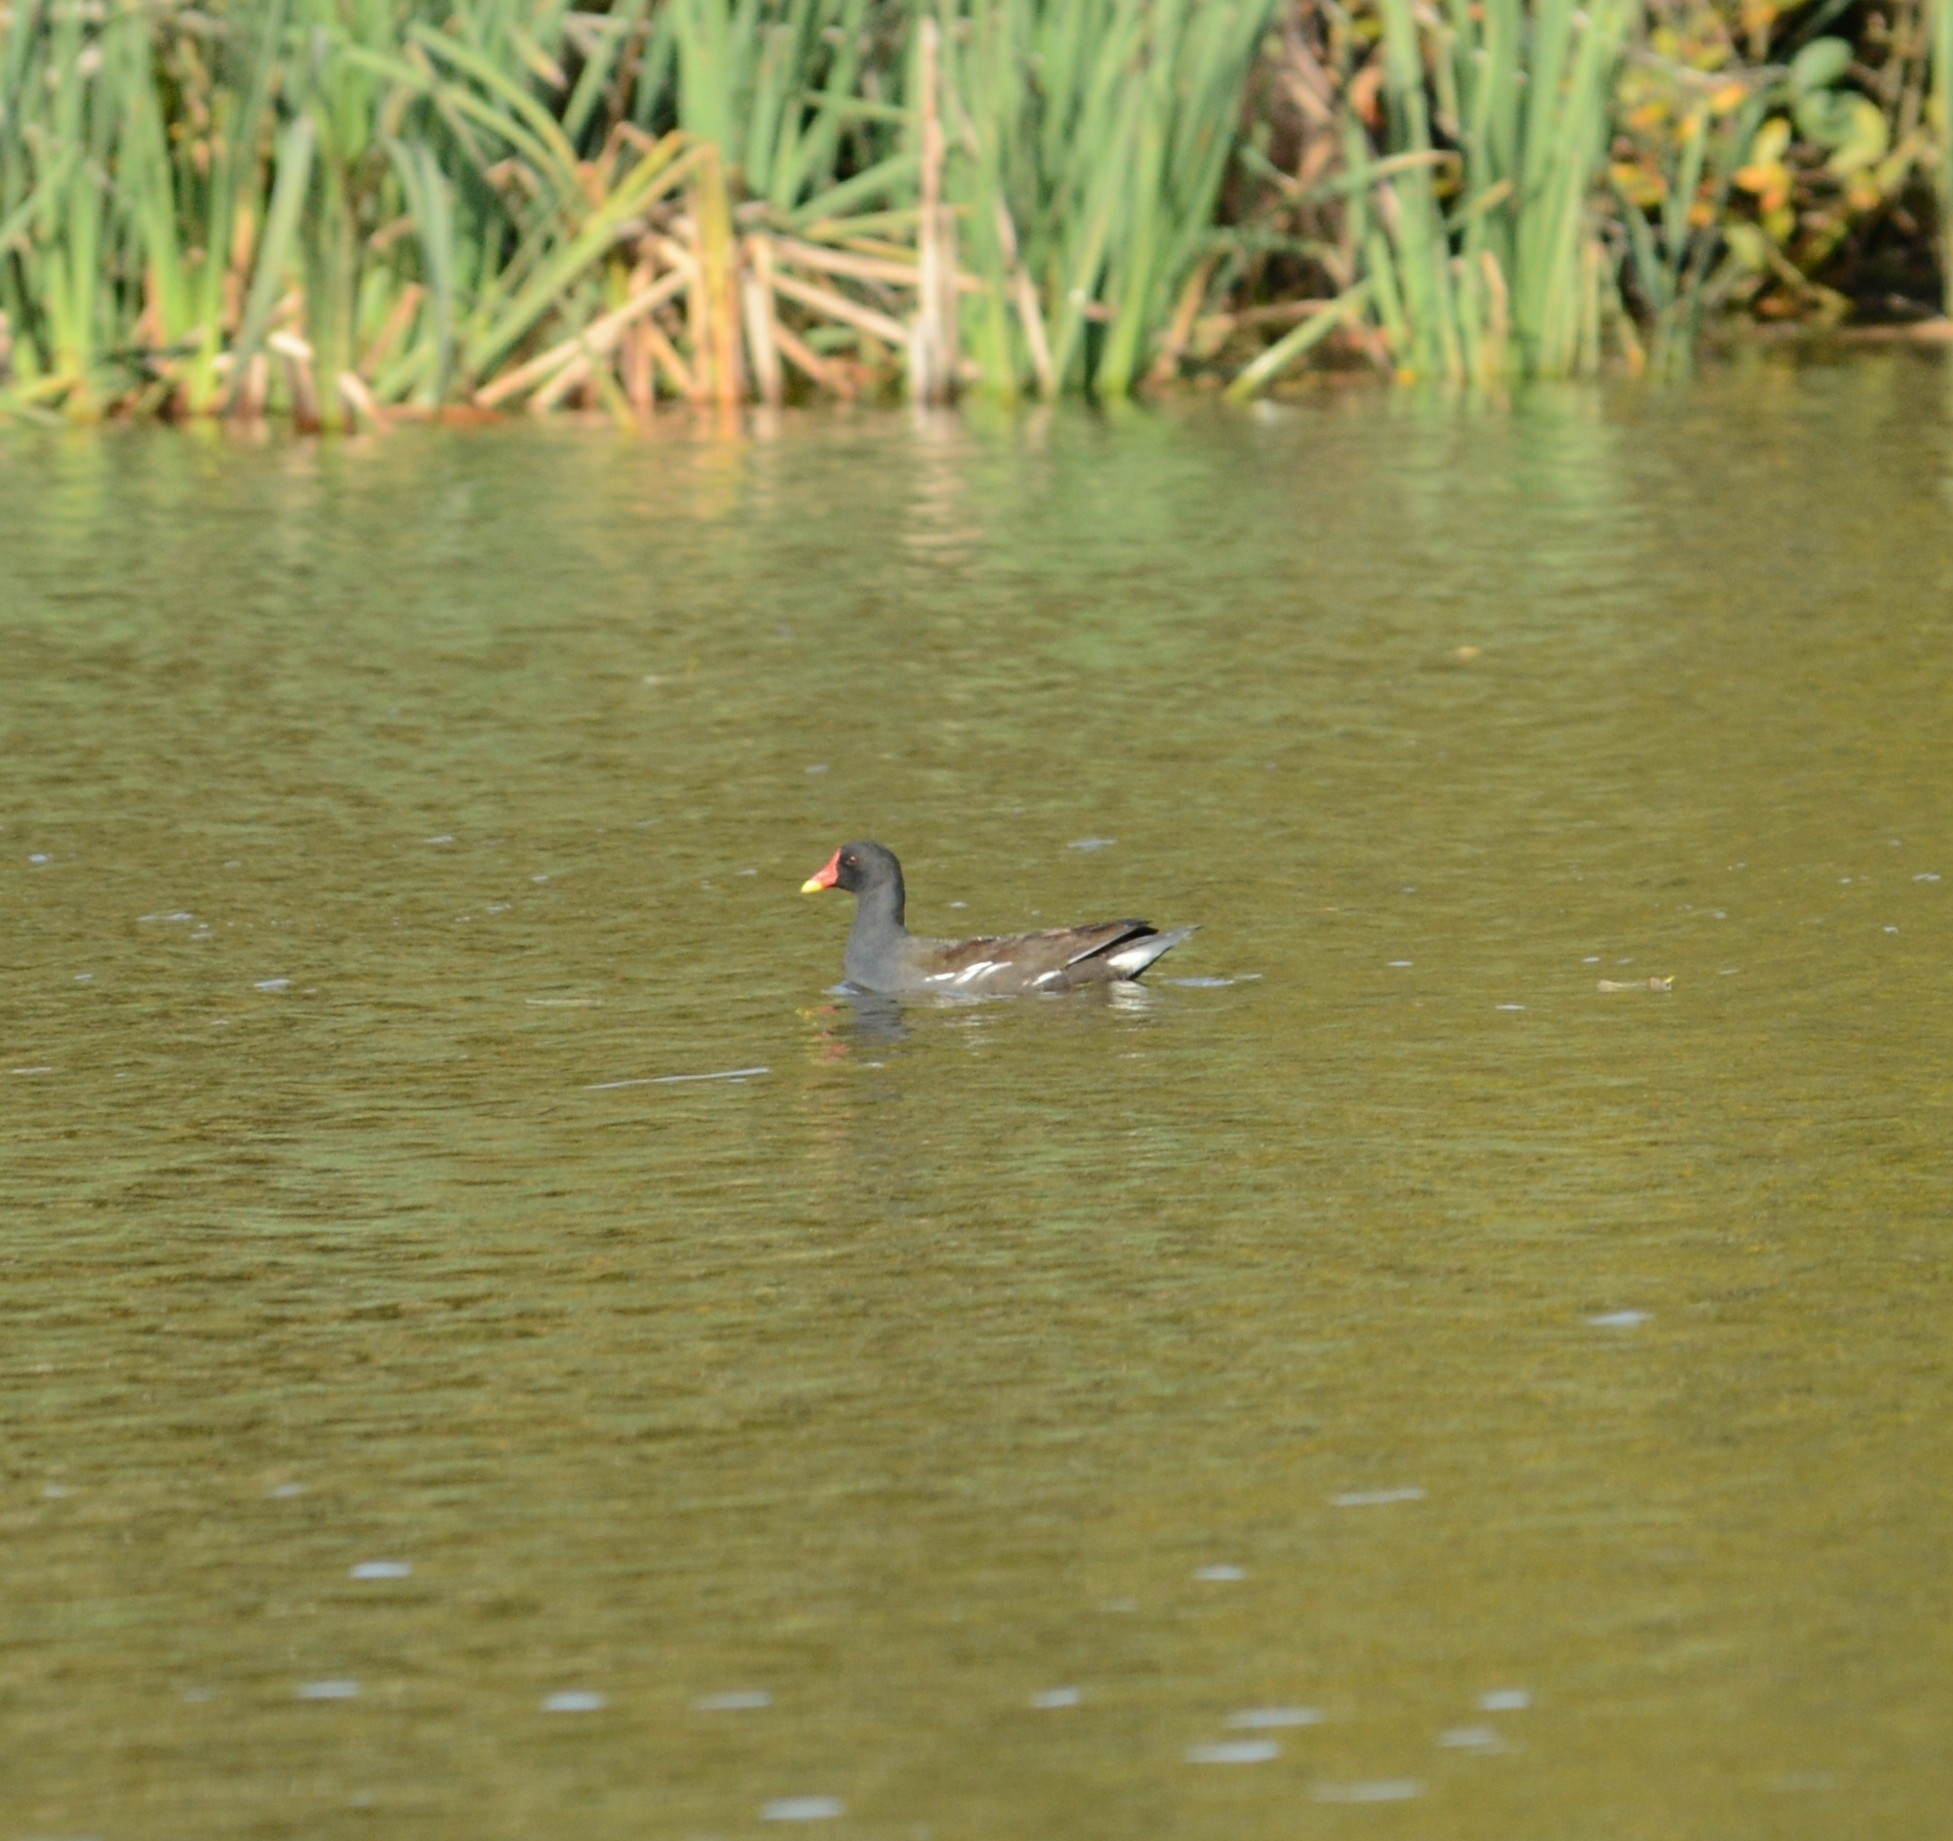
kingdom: Animalia
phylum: Chordata
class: Aves
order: Gruiformes
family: Rallidae
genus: Gallinula
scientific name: Gallinula chloropus
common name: Common moorhen
